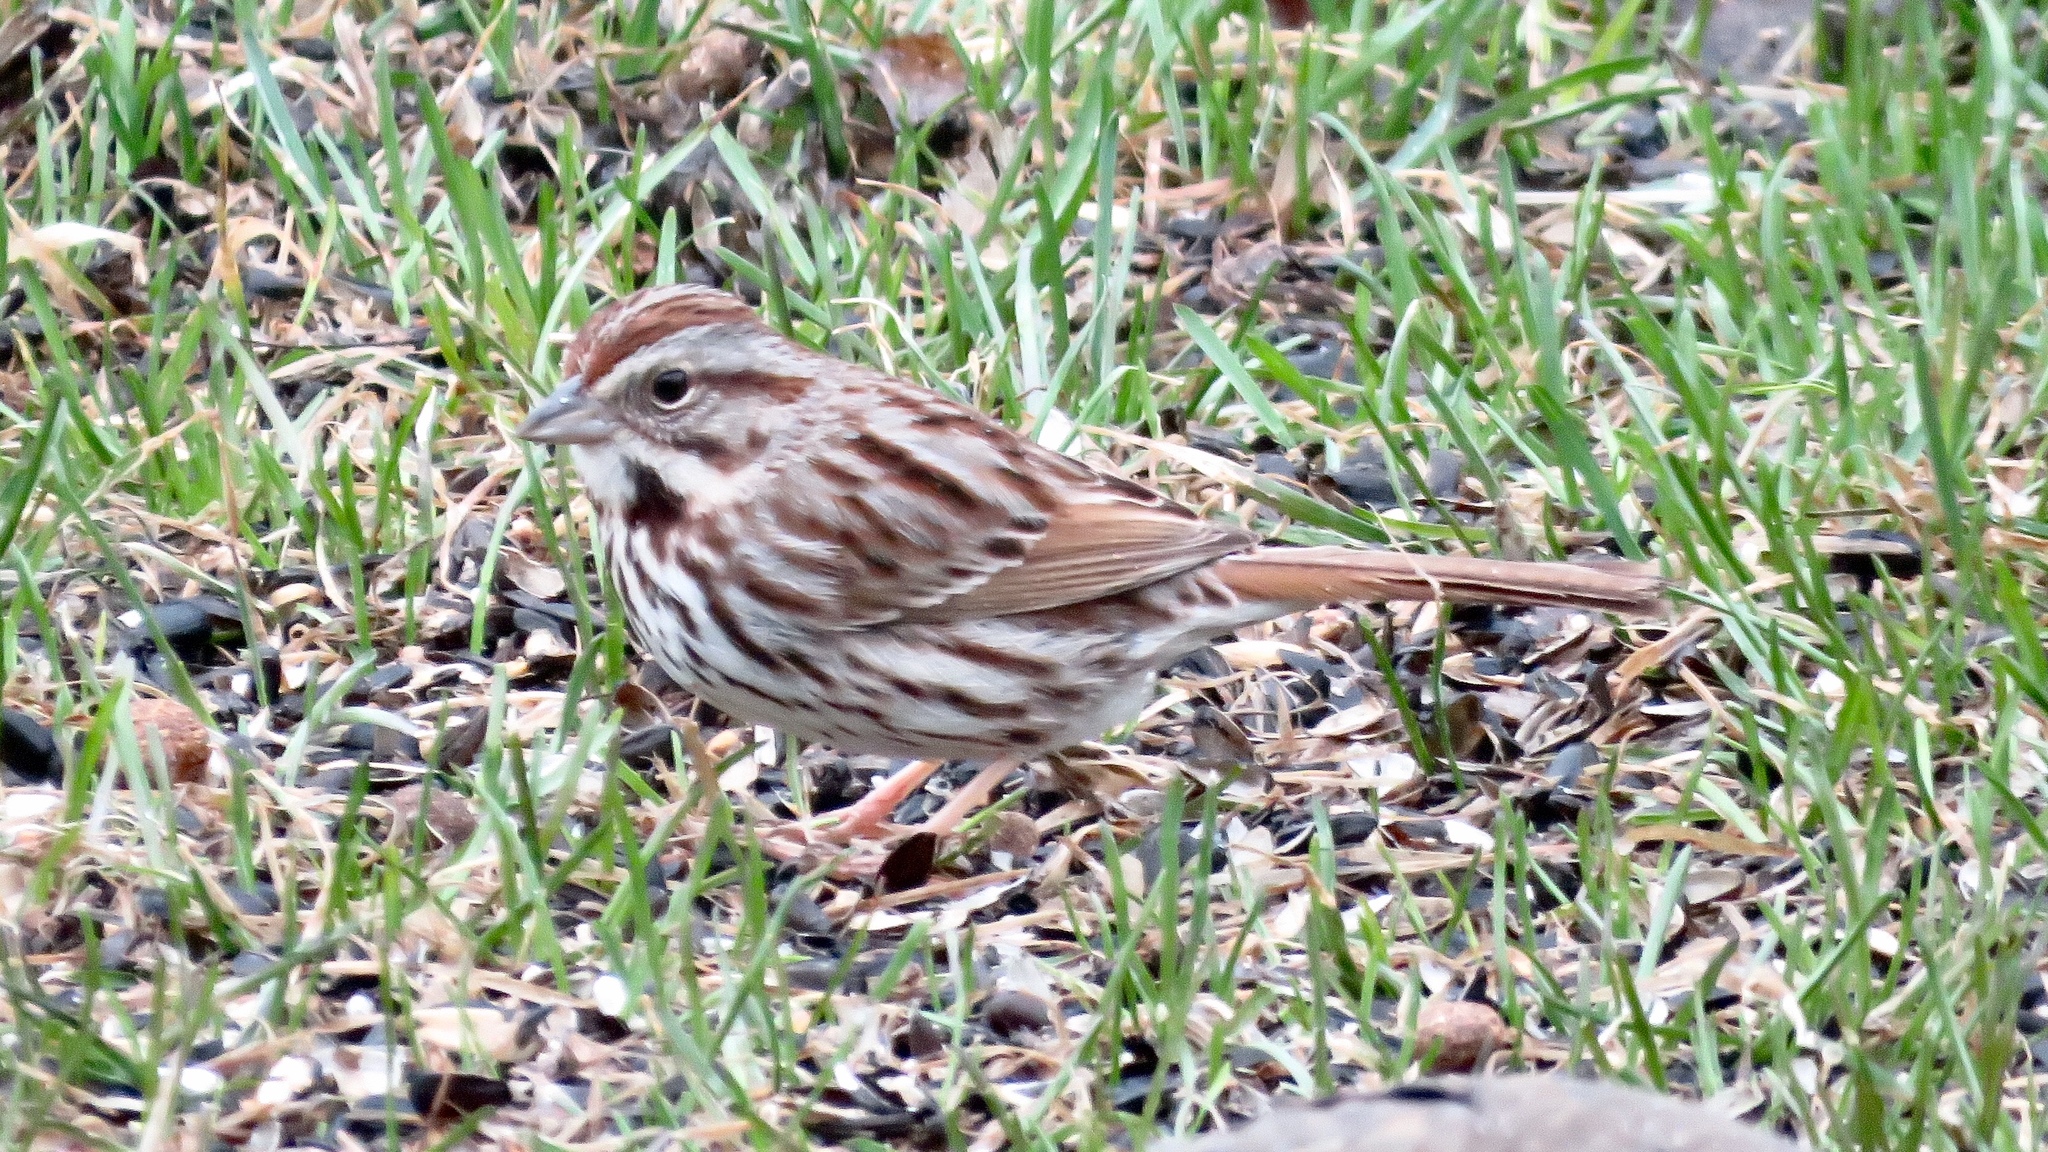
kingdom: Animalia
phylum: Chordata
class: Aves
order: Passeriformes
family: Passerellidae
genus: Melospiza
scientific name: Melospiza melodia
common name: Song sparrow
